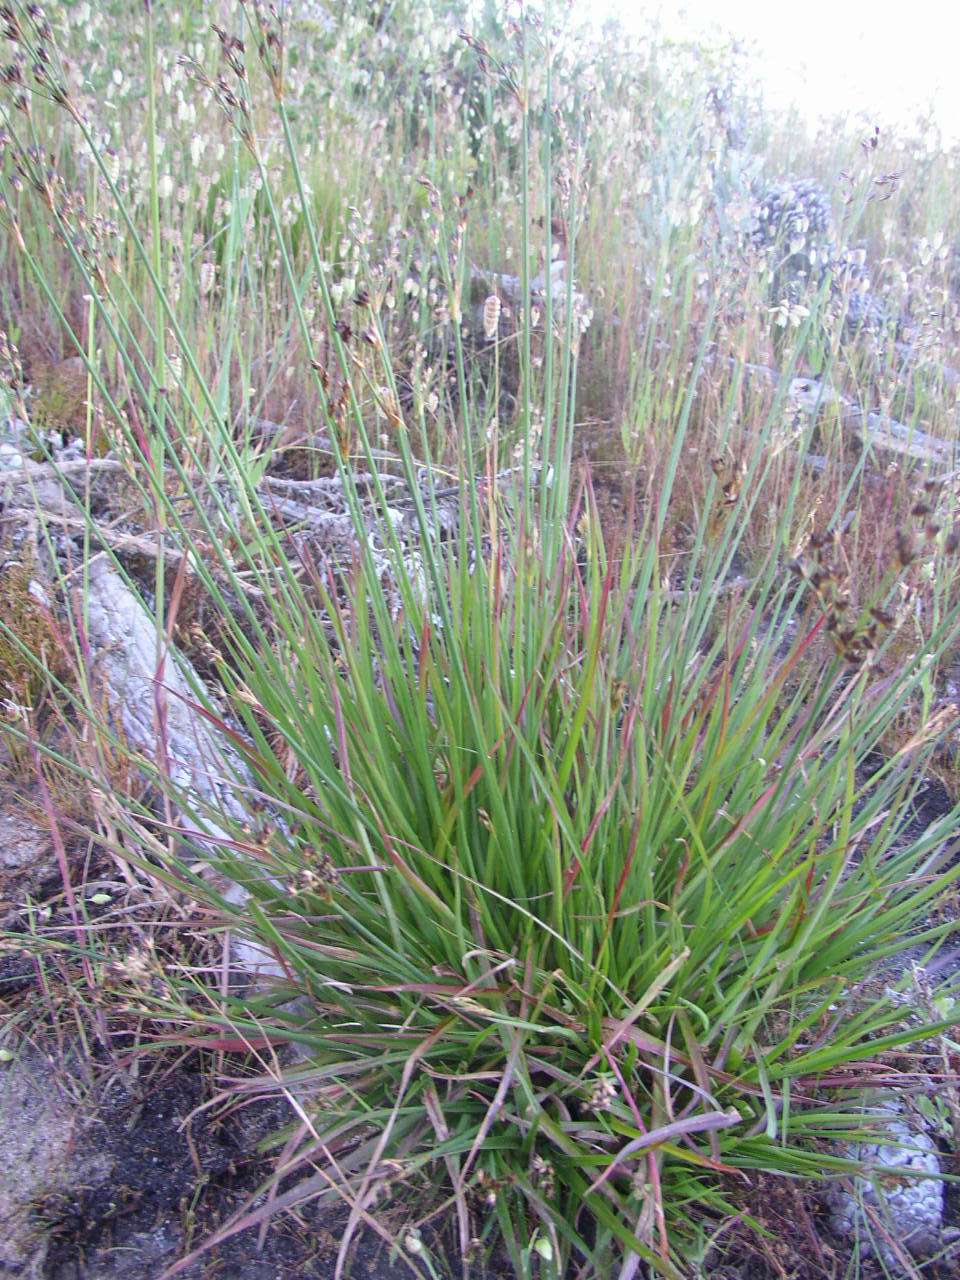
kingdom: Plantae
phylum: Tracheophyta
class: Liliopsida
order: Poales
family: Juncaceae
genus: Juncus
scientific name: Juncus lomatophyllus
